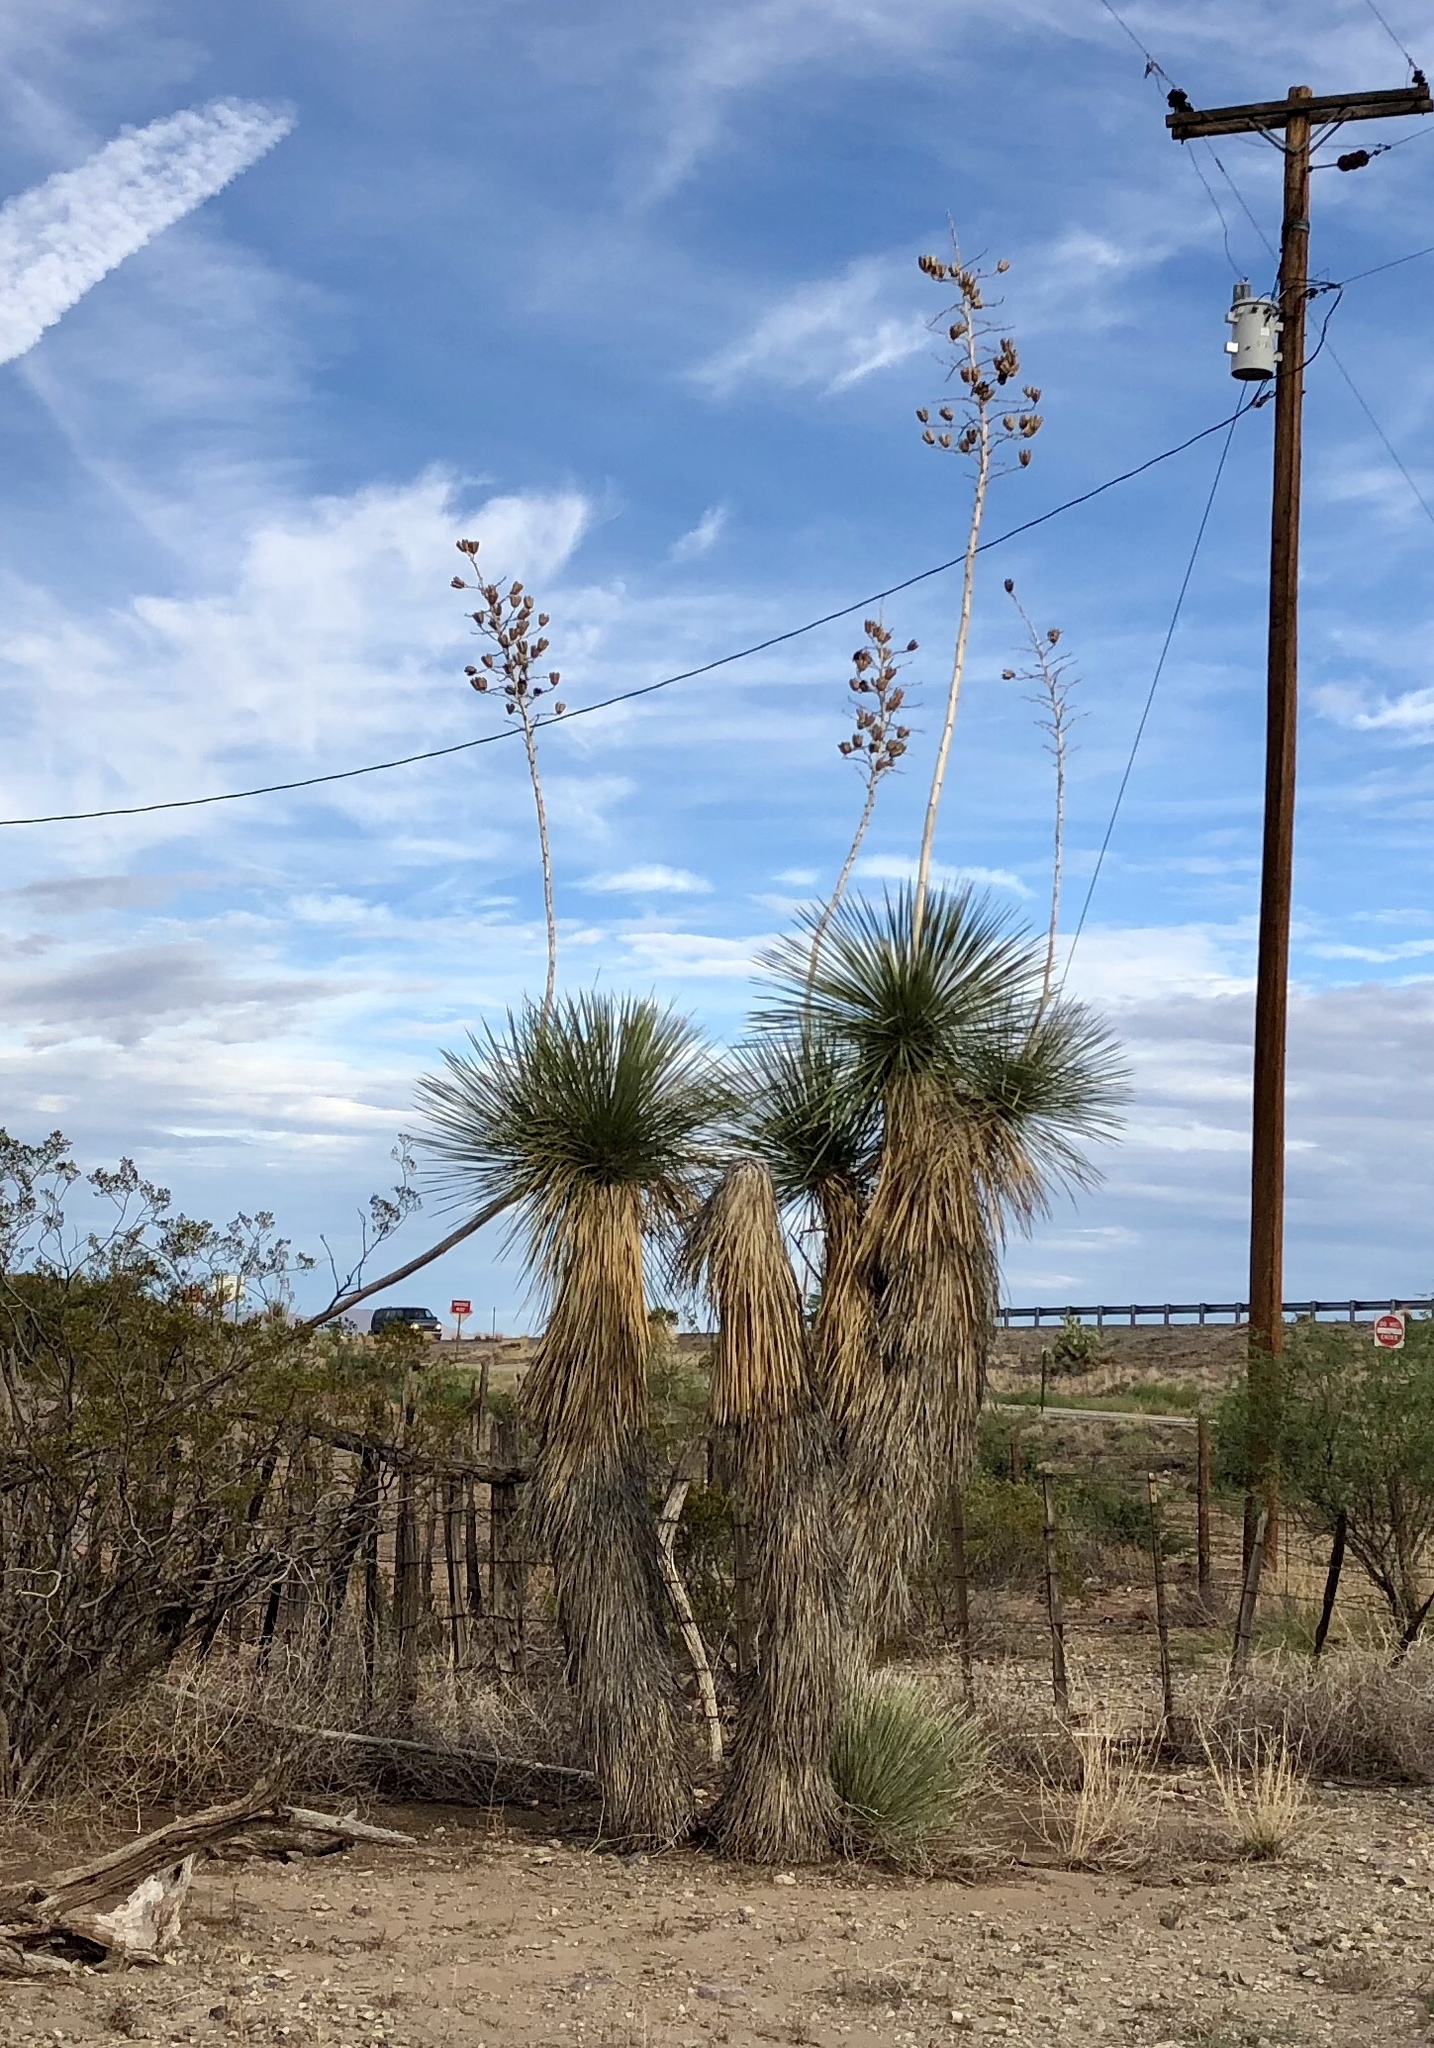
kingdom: Plantae
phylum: Tracheophyta
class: Liliopsida
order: Asparagales
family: Asparagaceae
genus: Yucca
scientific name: Yucca elata
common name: Palmella
